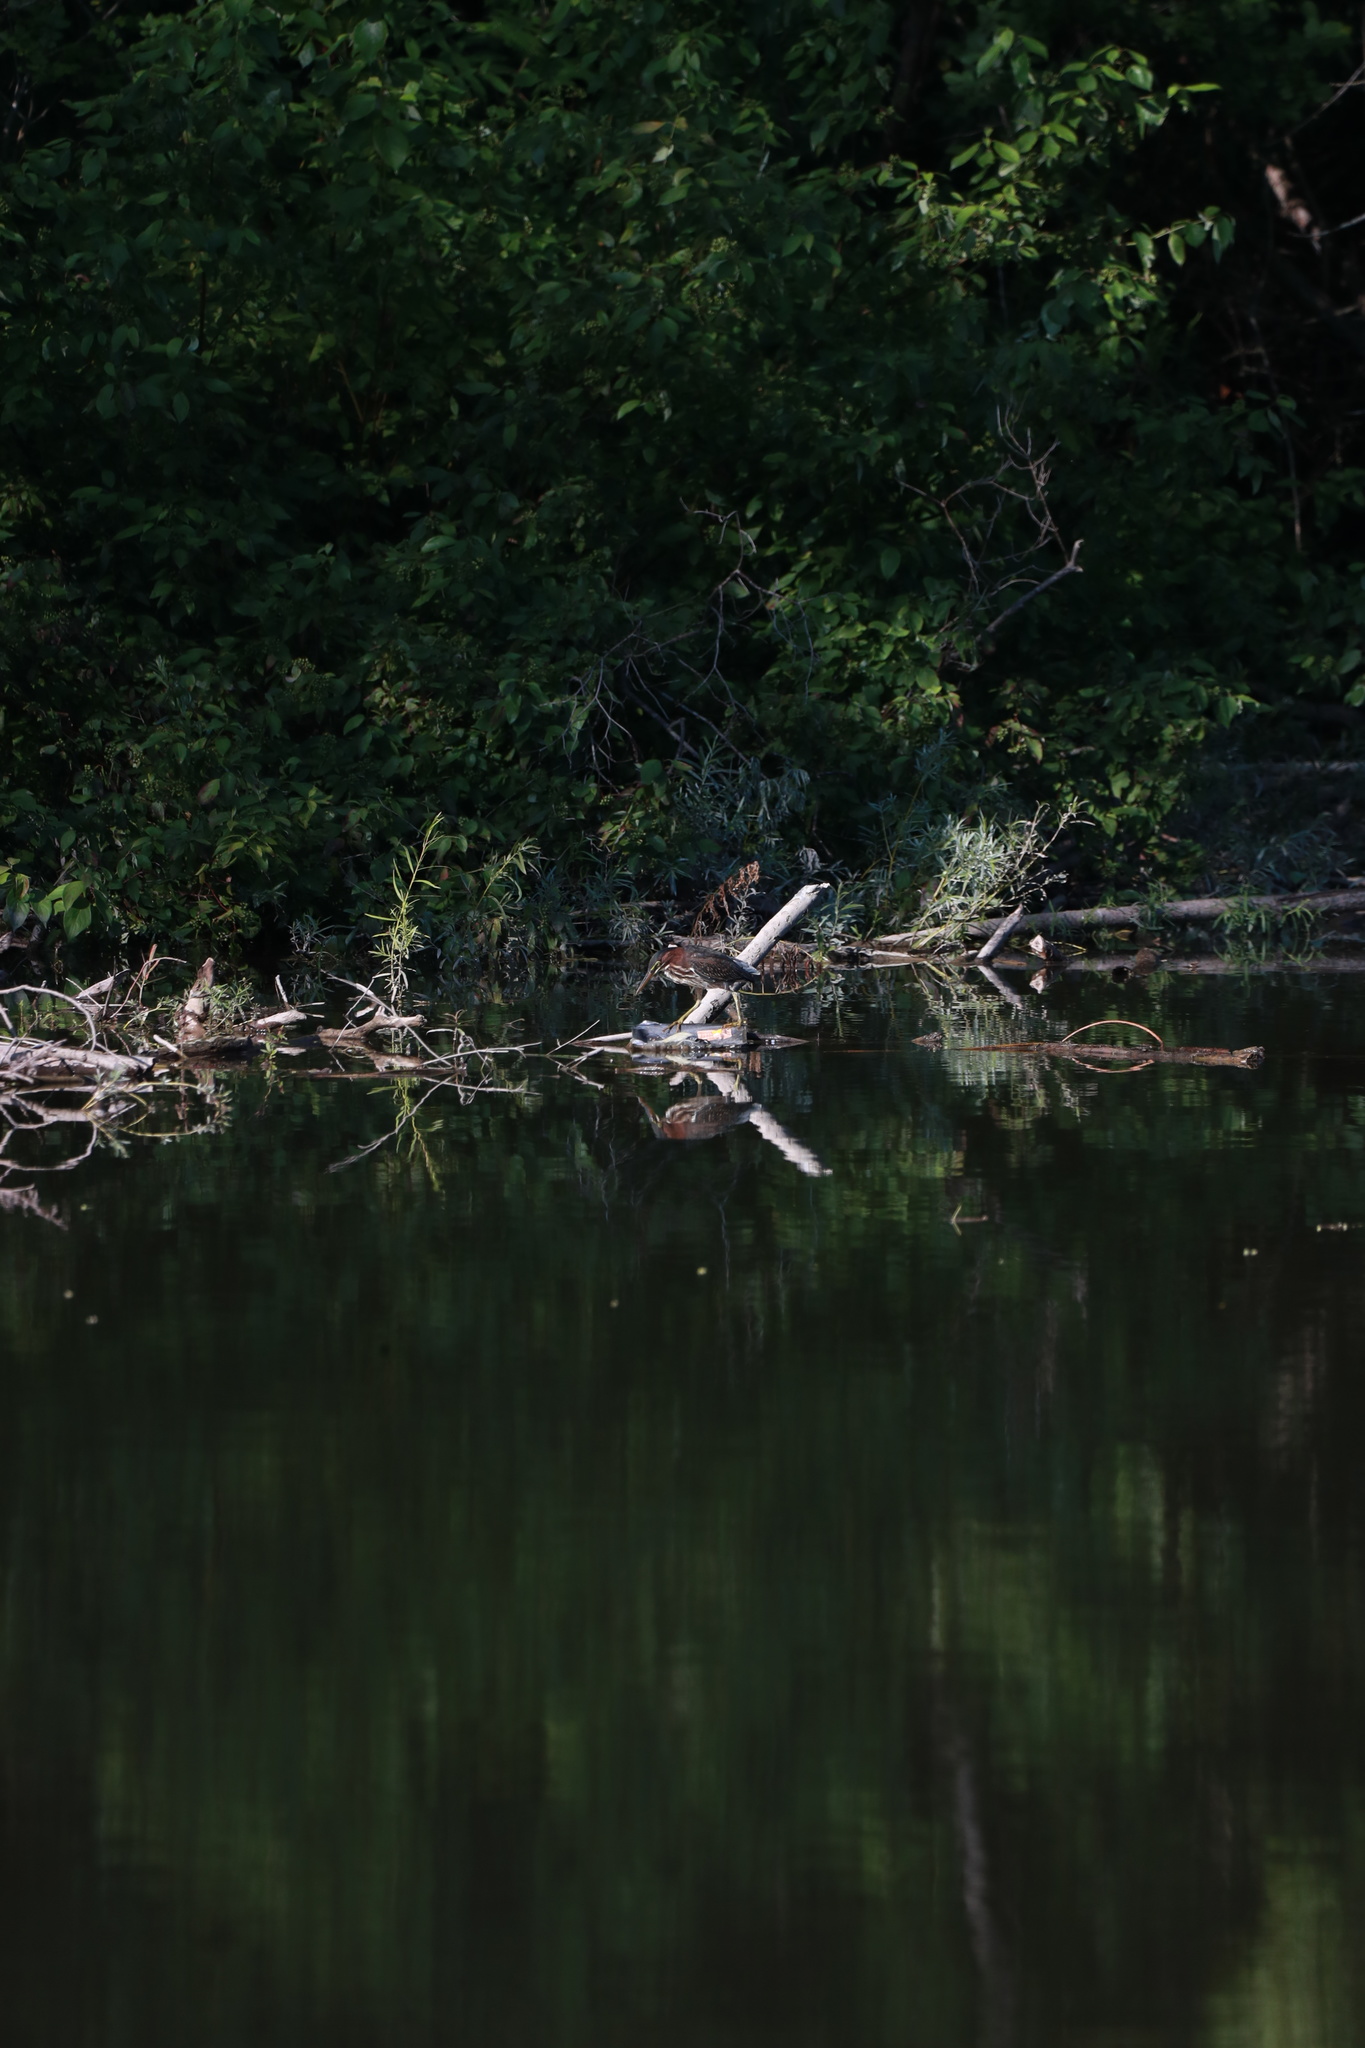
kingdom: Animalia
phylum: Chordata
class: Aves
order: Pelecaniformes
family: Ardeidae
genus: Butorides
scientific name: Butorides virescens
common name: Green heron
